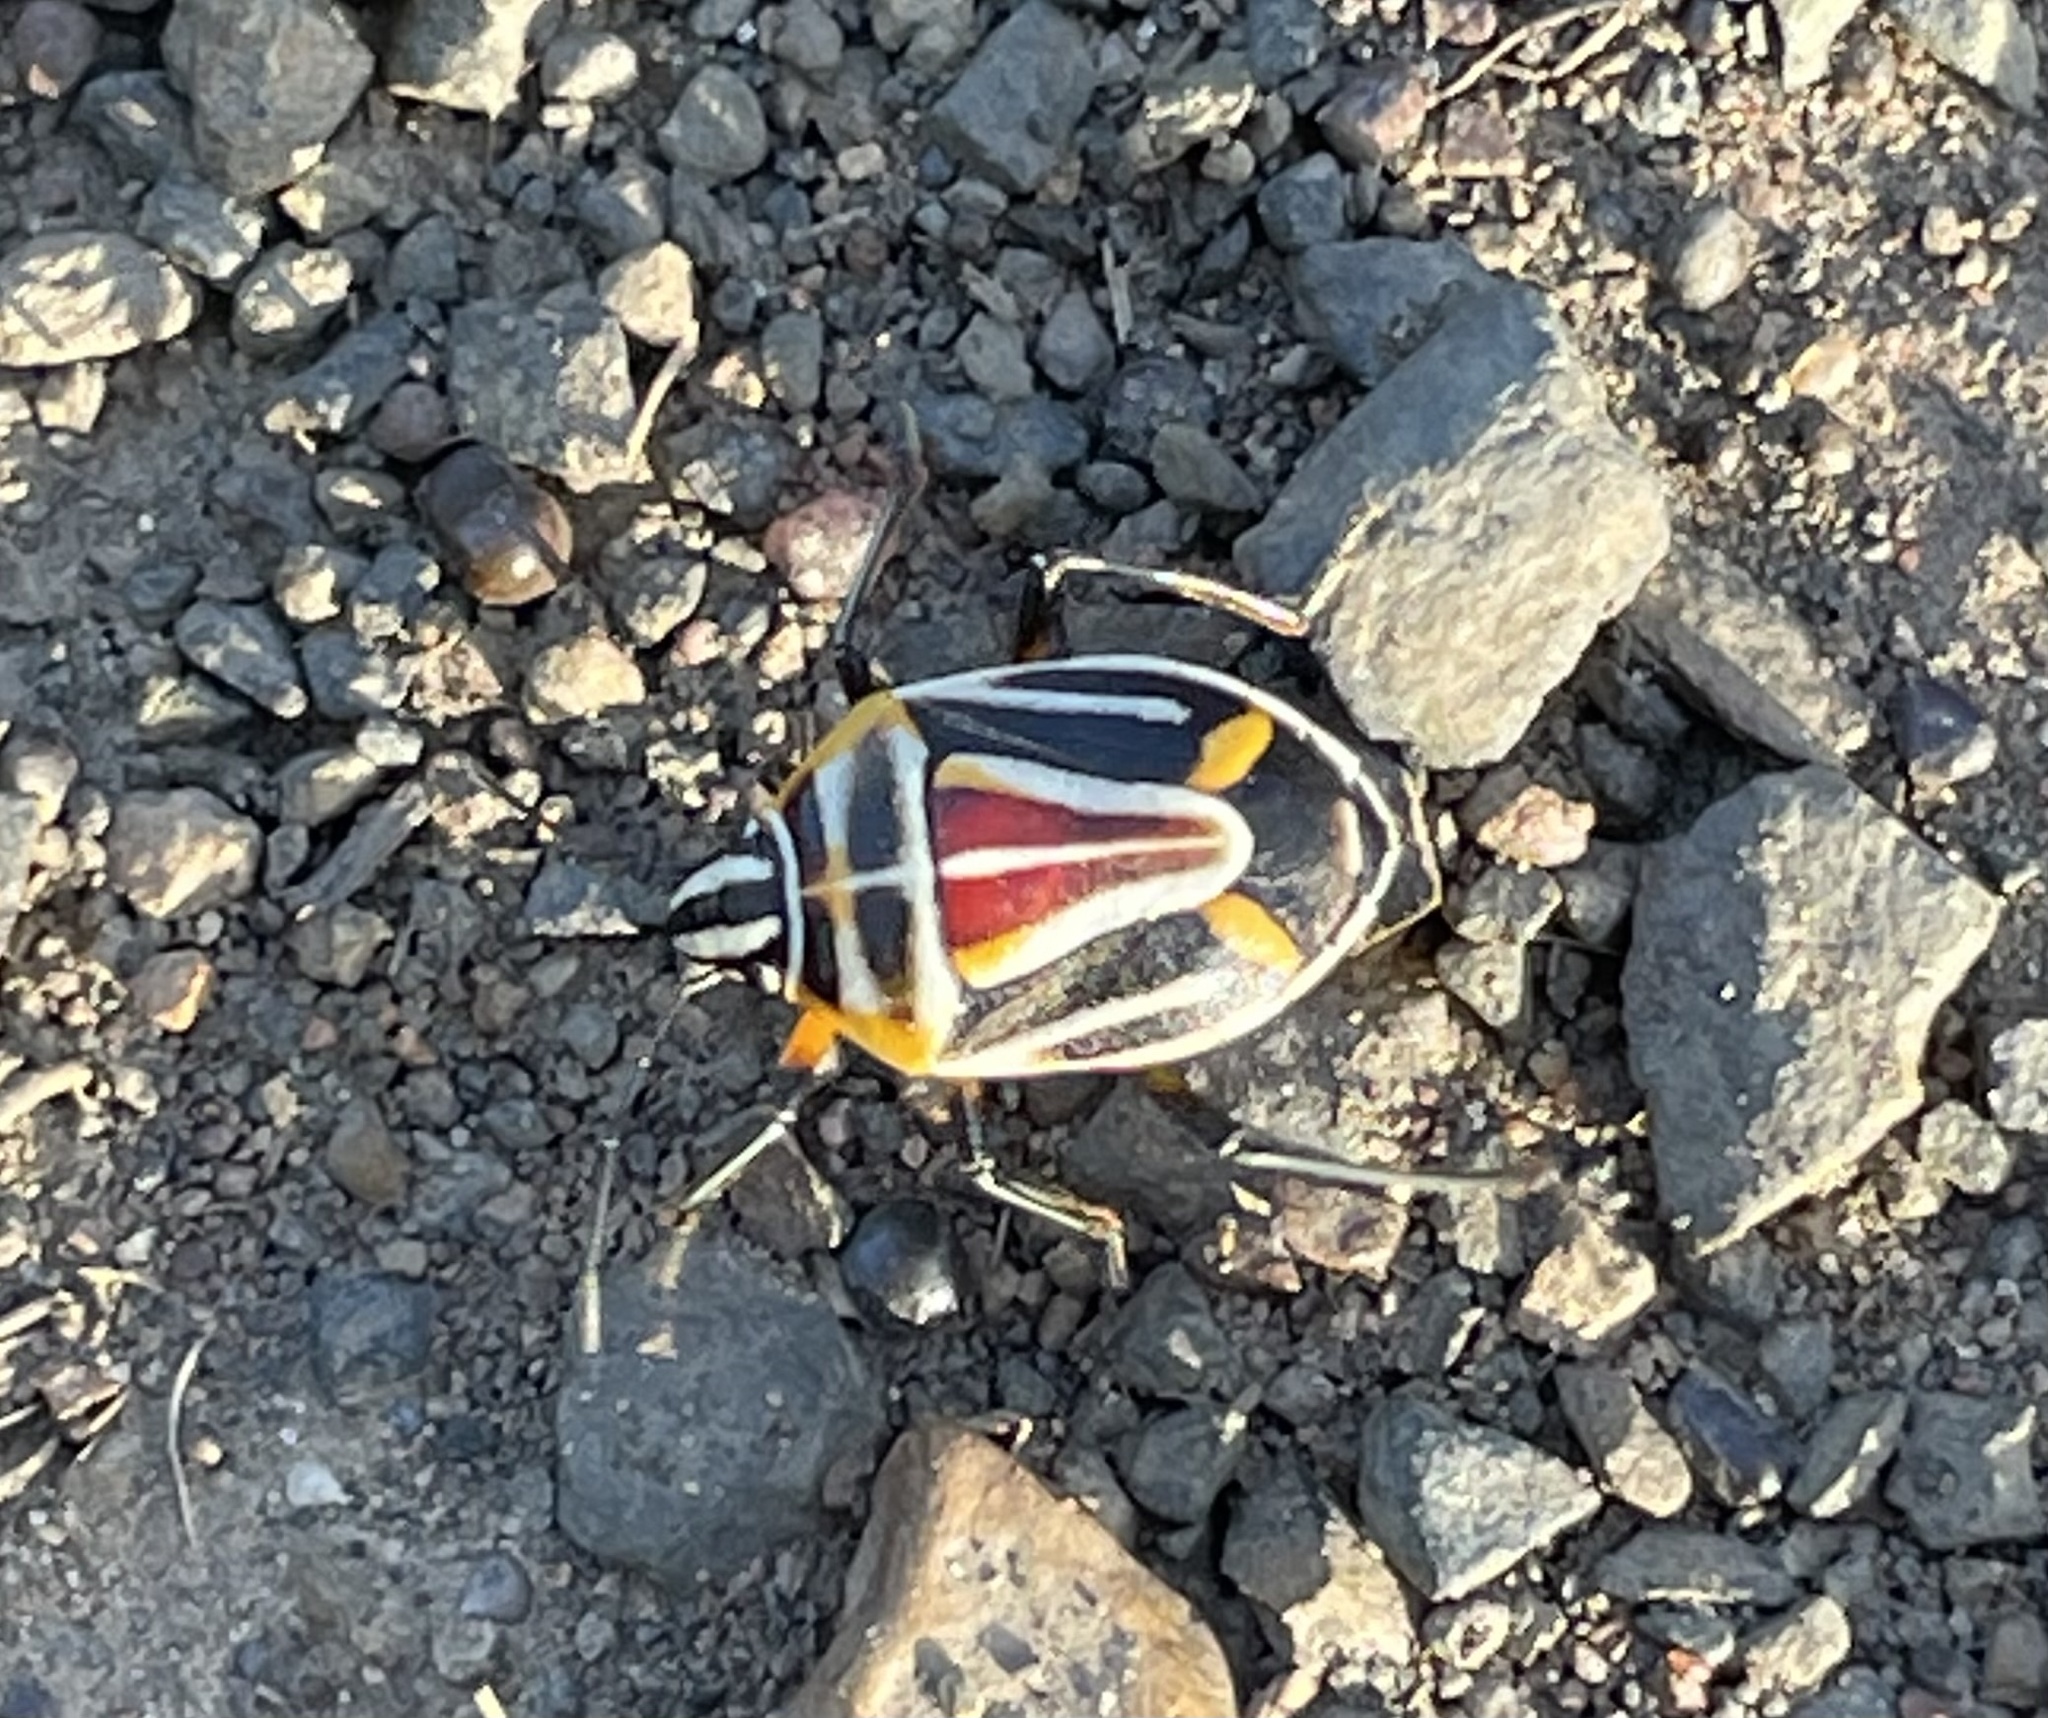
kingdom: Animalia
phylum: Arthropoda
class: Insecta
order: Hemiptera
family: Pentatomidae
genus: Afrania
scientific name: Afrania brachyptera
